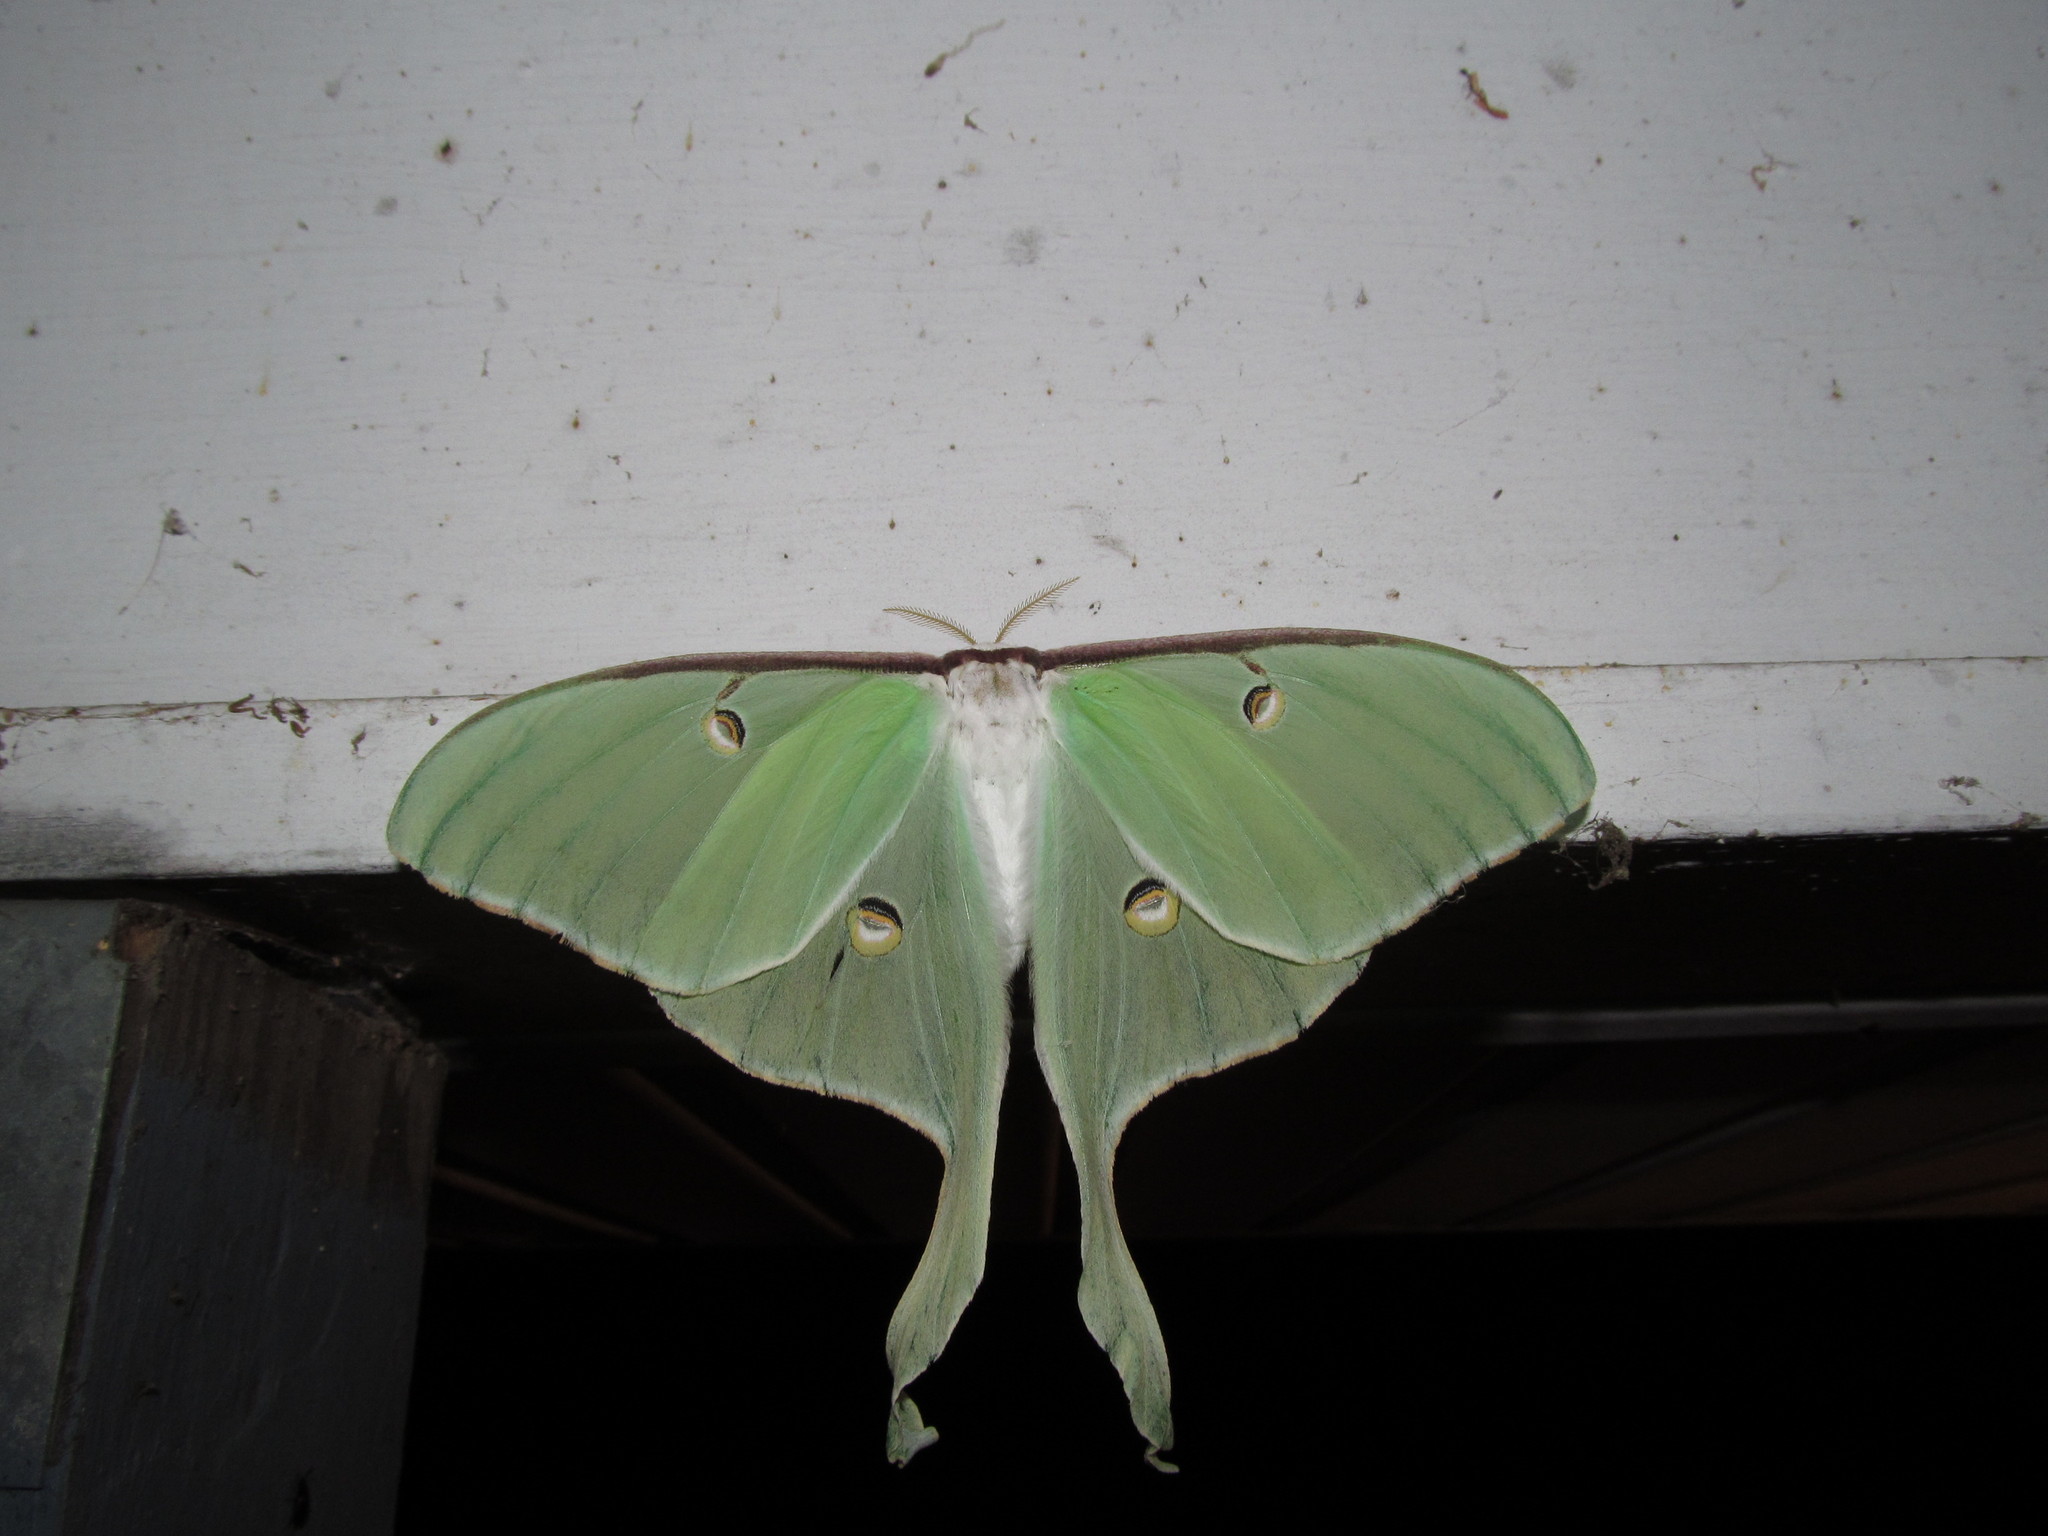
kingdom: Animalia
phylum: Arthropoda
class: Insecta
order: Lepidoptera
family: Saturniidae
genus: Actias
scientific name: Actias luna
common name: Luna moth
